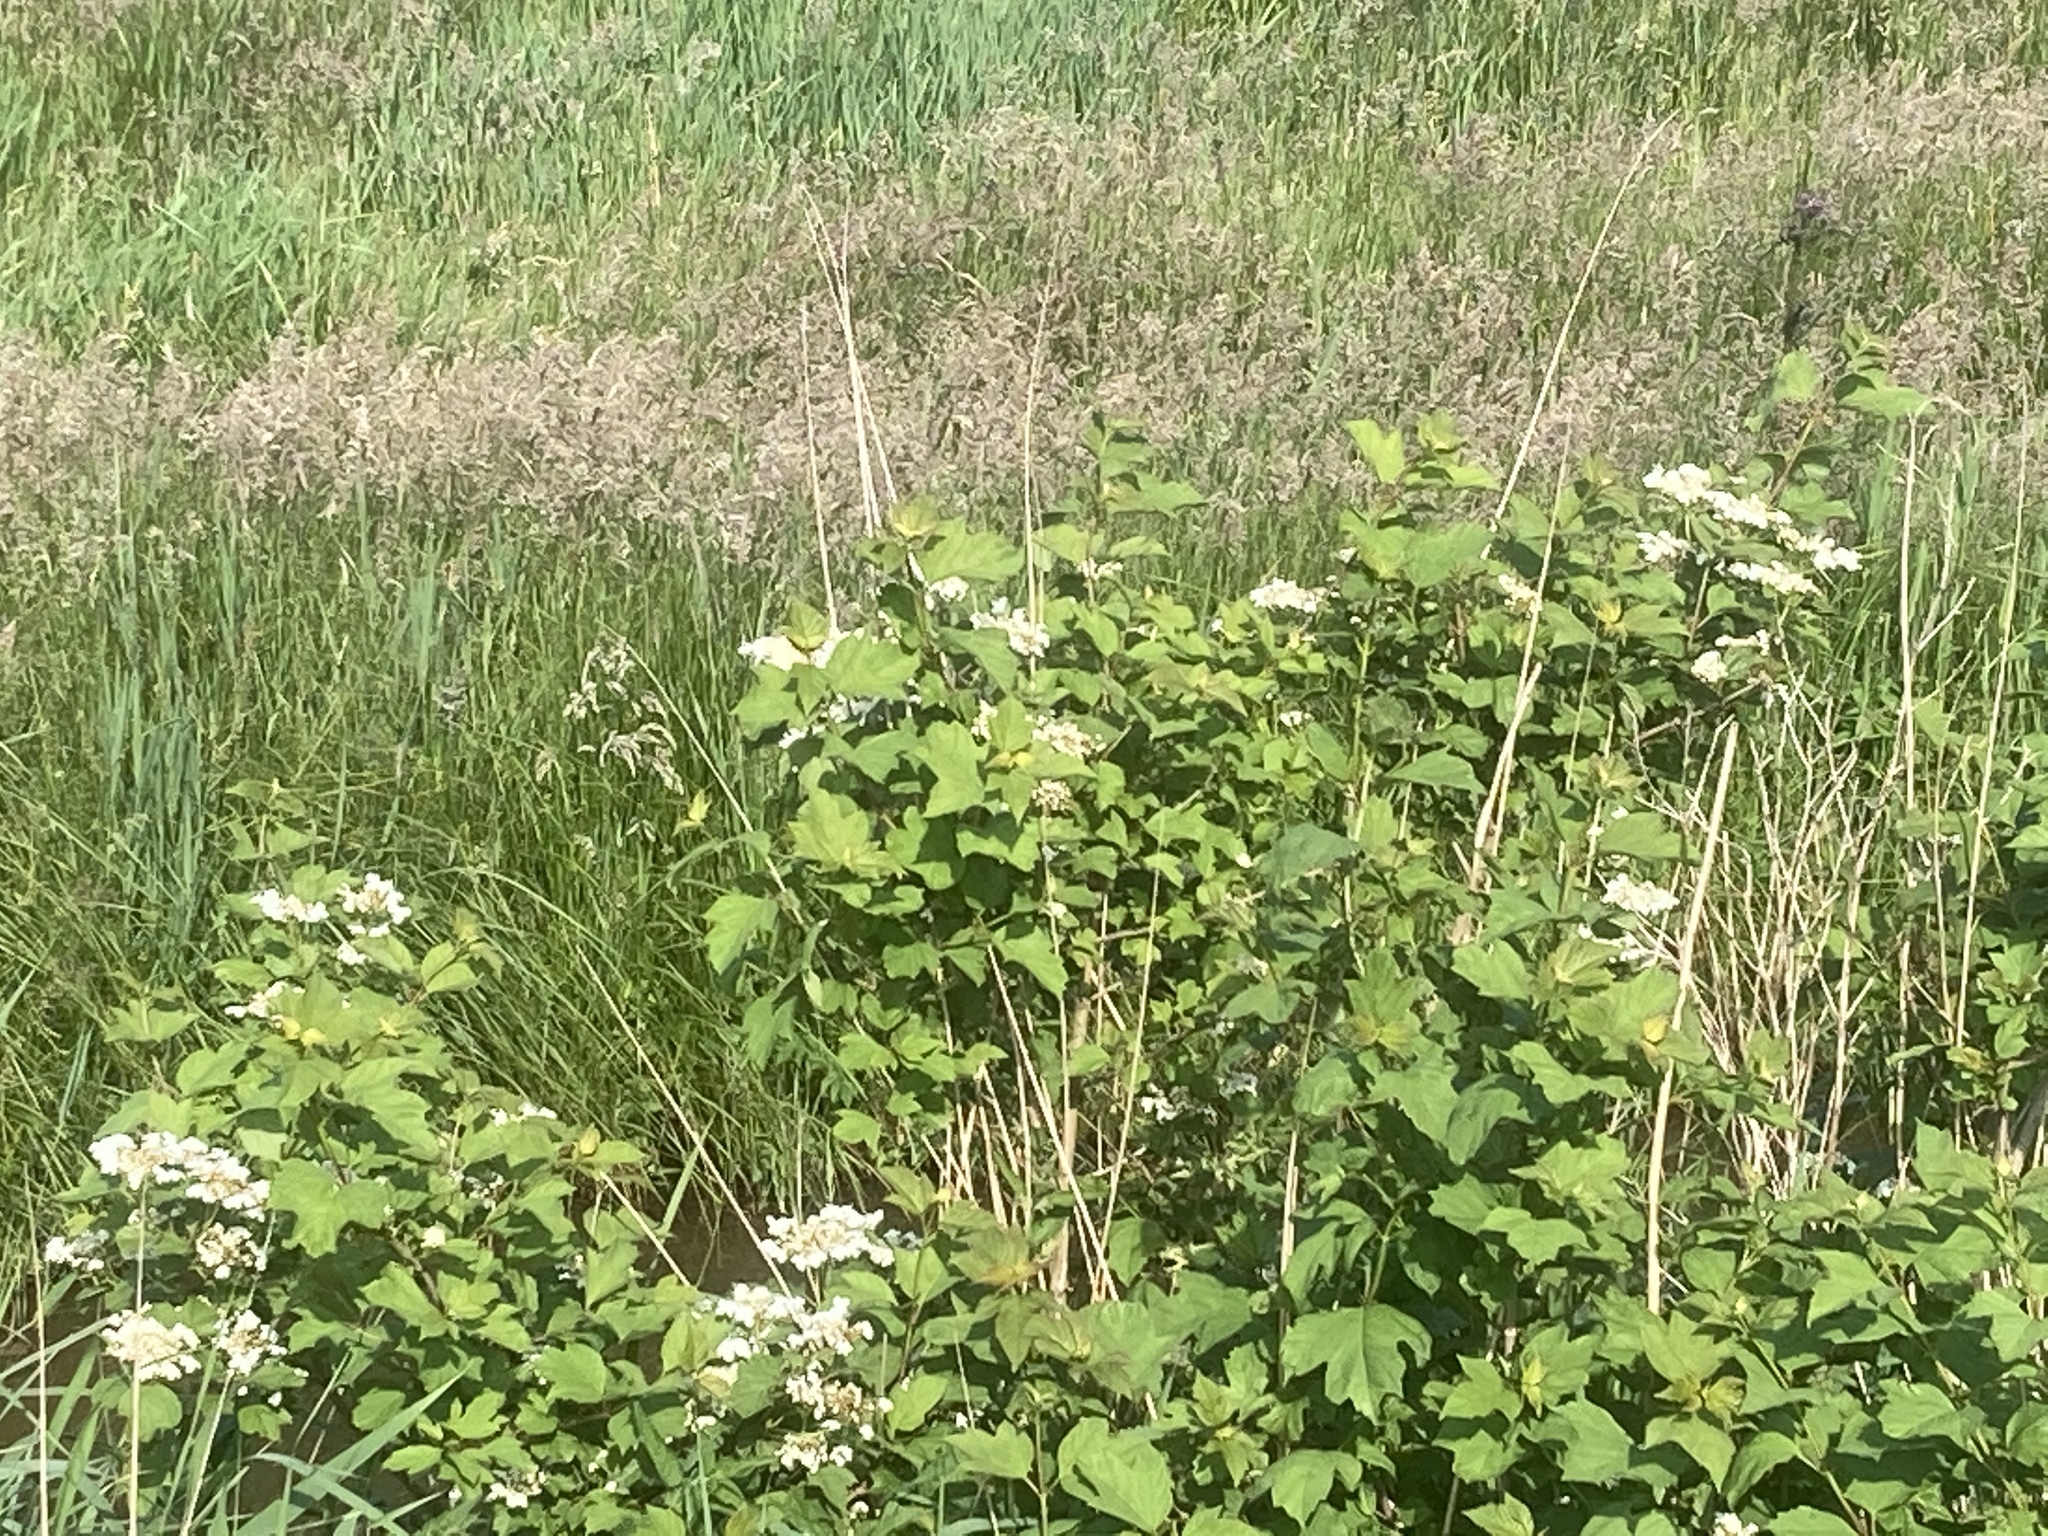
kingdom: Plantae
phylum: Tracheophyta
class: Magnoliopsida
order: Dipsacales
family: Viburnaceae
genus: Viburnum
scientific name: Viburnum opulus
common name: Guelder-rose
